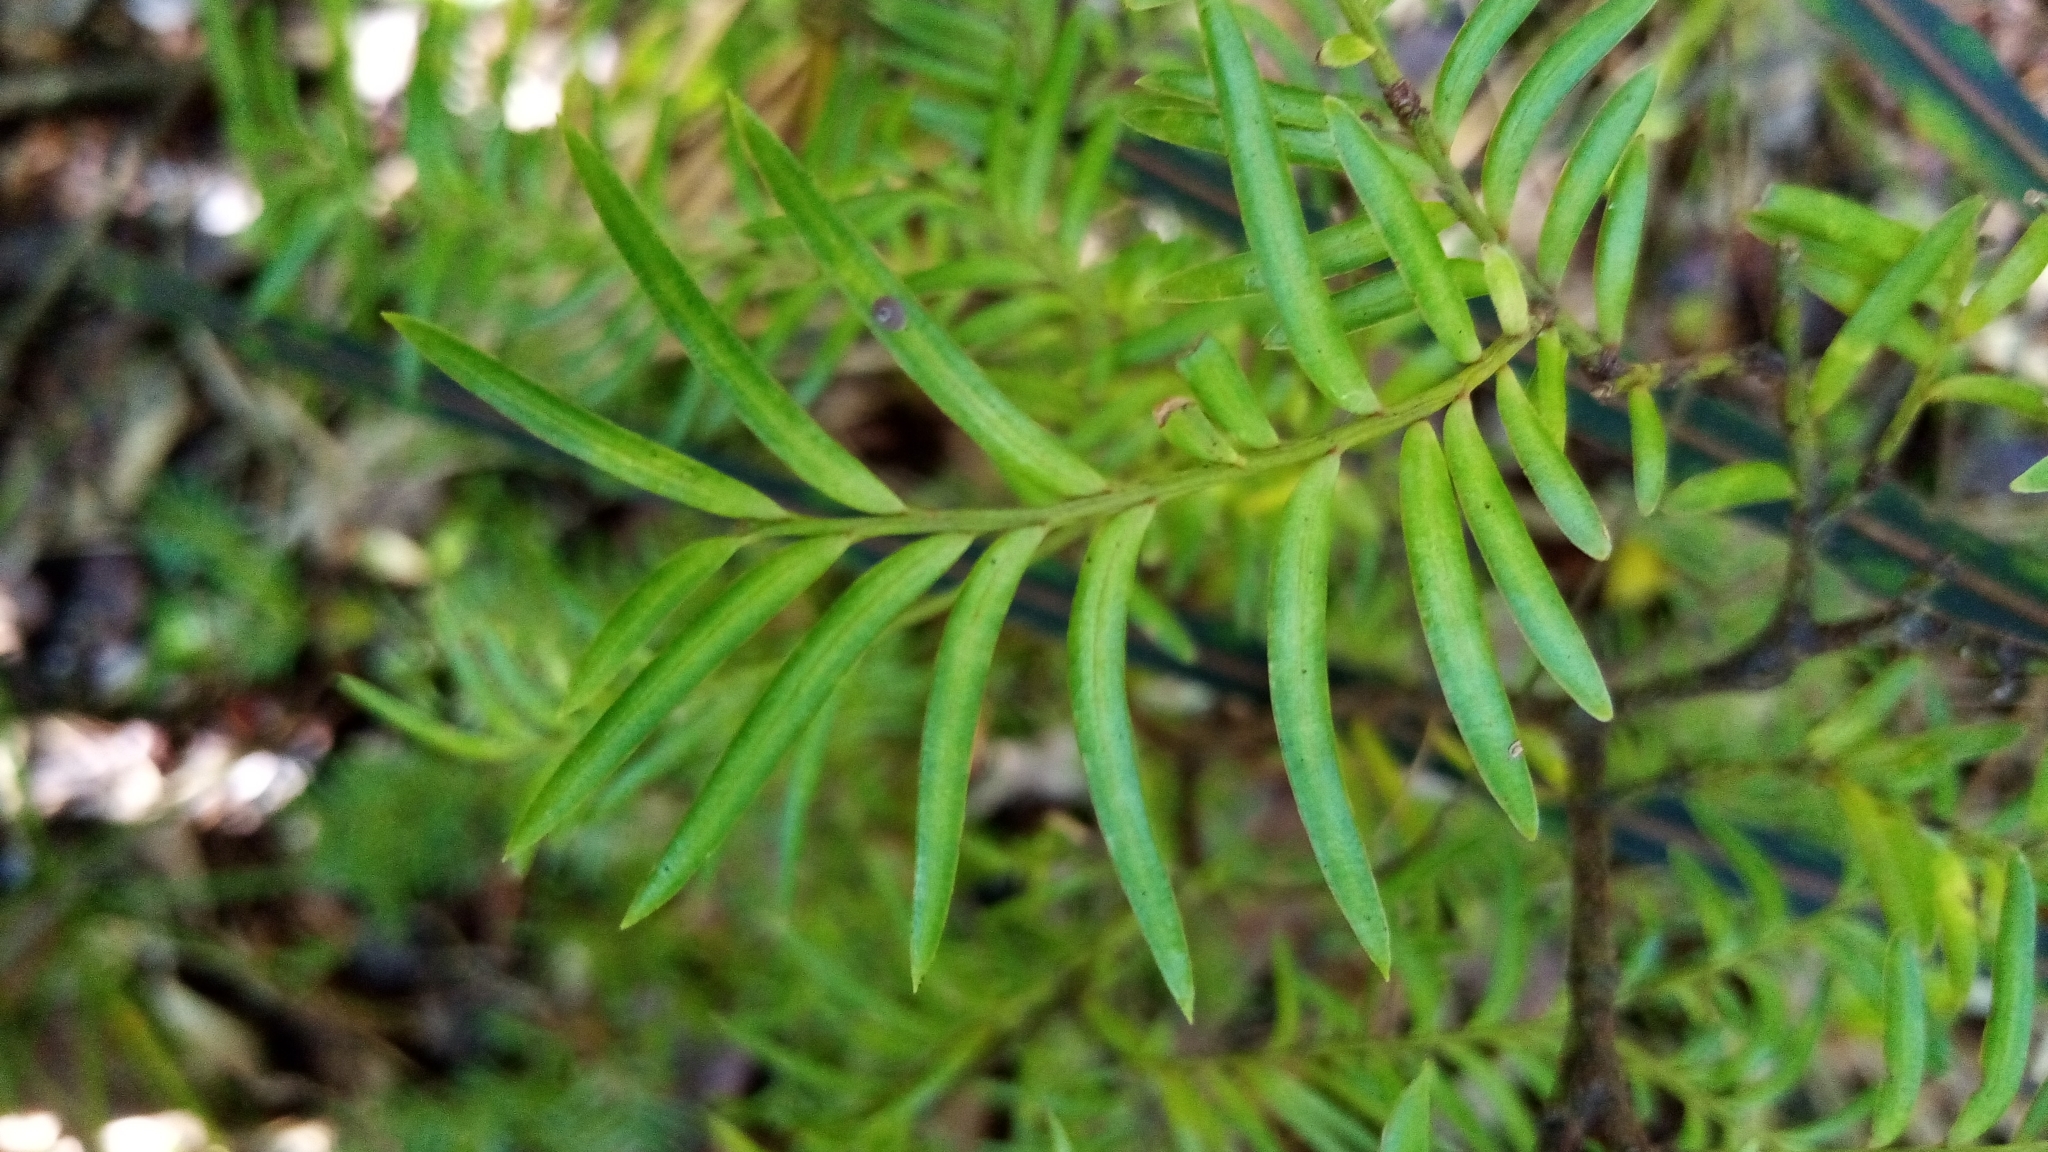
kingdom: Plantae
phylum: Tracheophyta
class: Pinopsida
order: Pinales
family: Podocarpaceae
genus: Prumnopitys
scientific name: Prumnopitys ferruginea
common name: Brown pine
